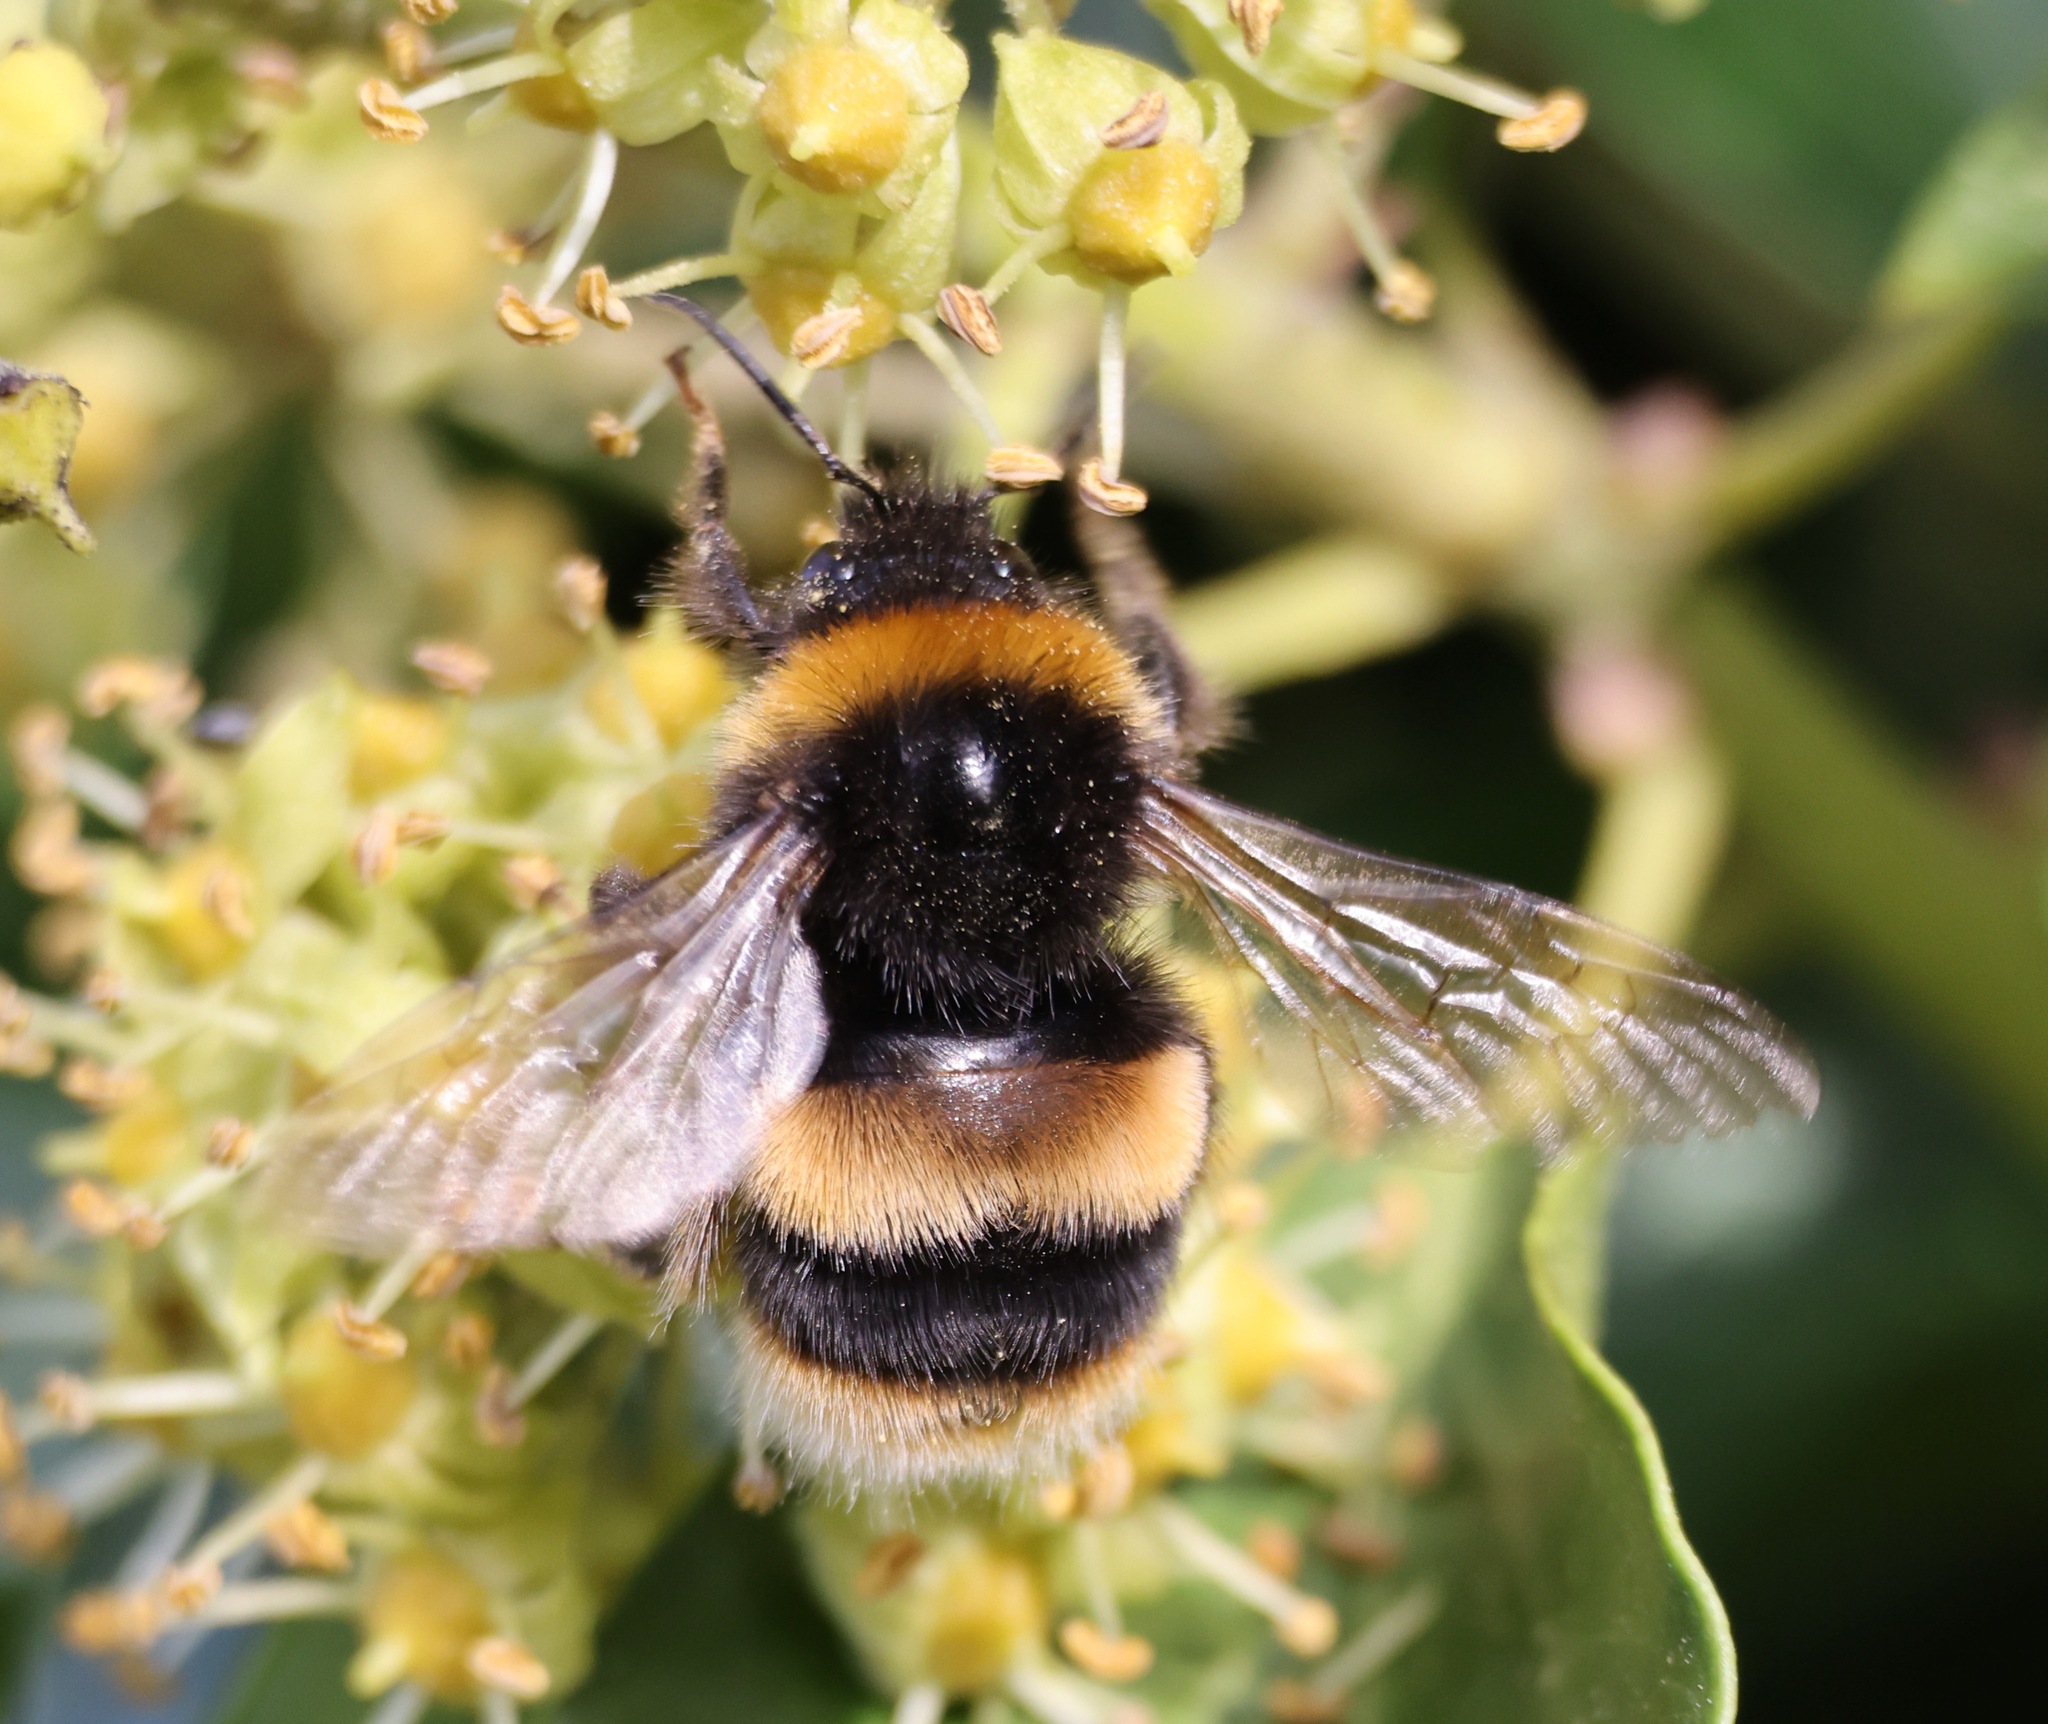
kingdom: Animalia
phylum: Arthropoda
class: Insecta
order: Hymenoptera
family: Apidae
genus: Bombus
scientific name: Bombus terrestris
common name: Buff-tailed bumblebee
